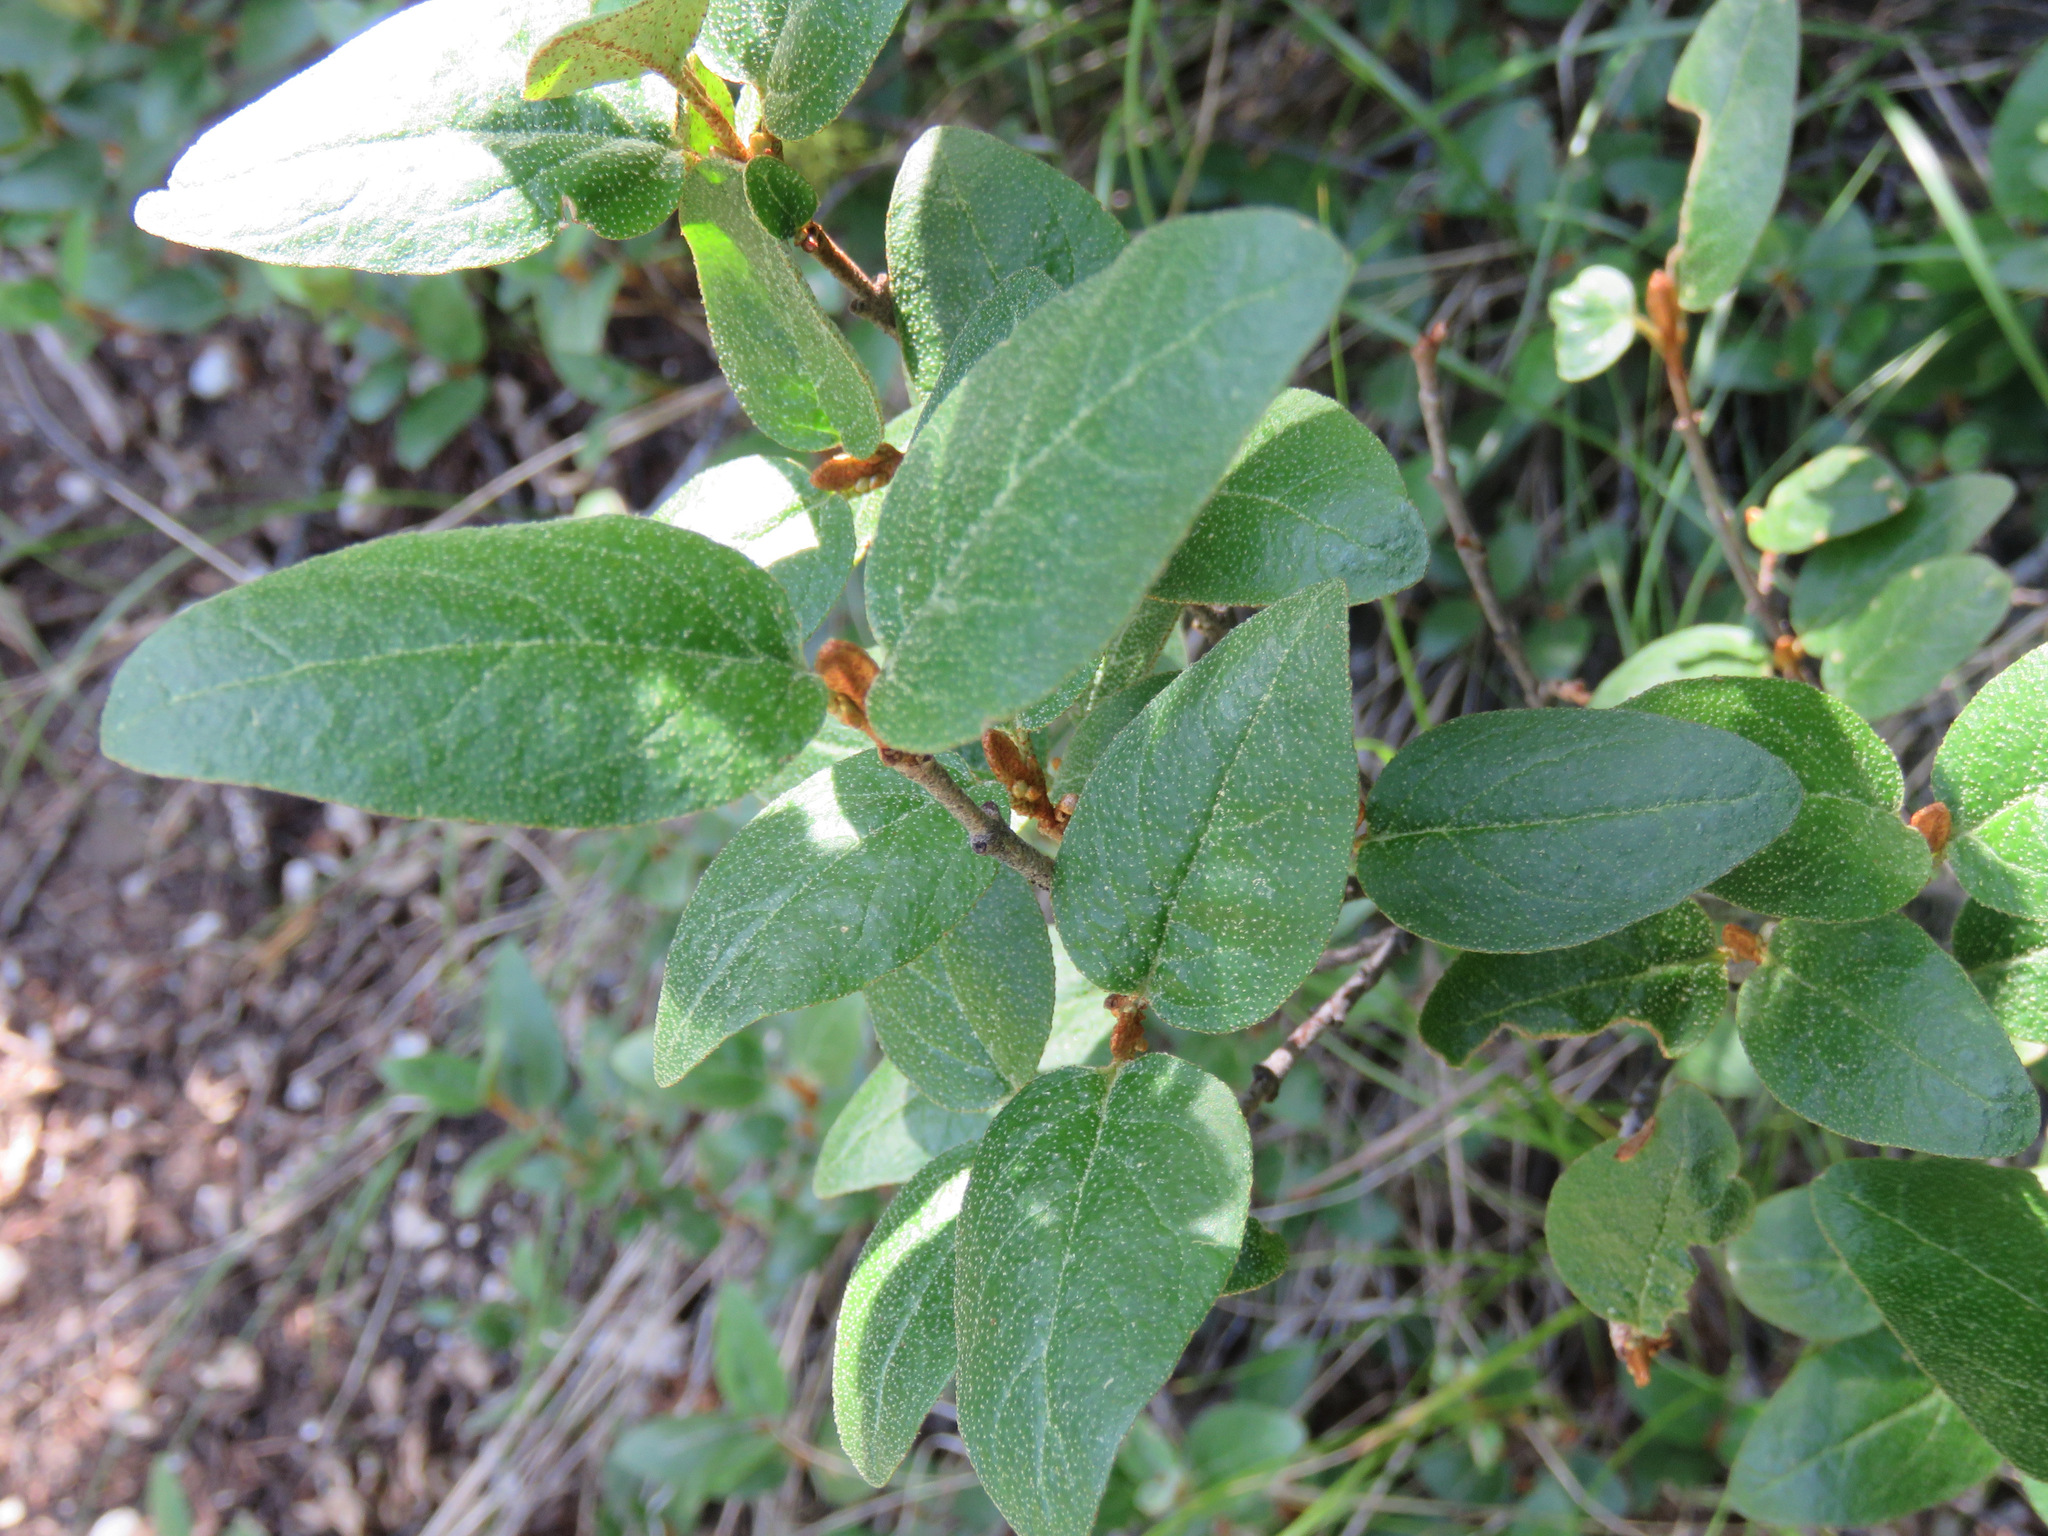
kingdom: Plantae
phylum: Tracheophyta
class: Magnoliopsida
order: Rosales
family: Elaeagnaceae
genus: Shepherdia
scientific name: Shepherdia canadensis
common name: Soapberry
